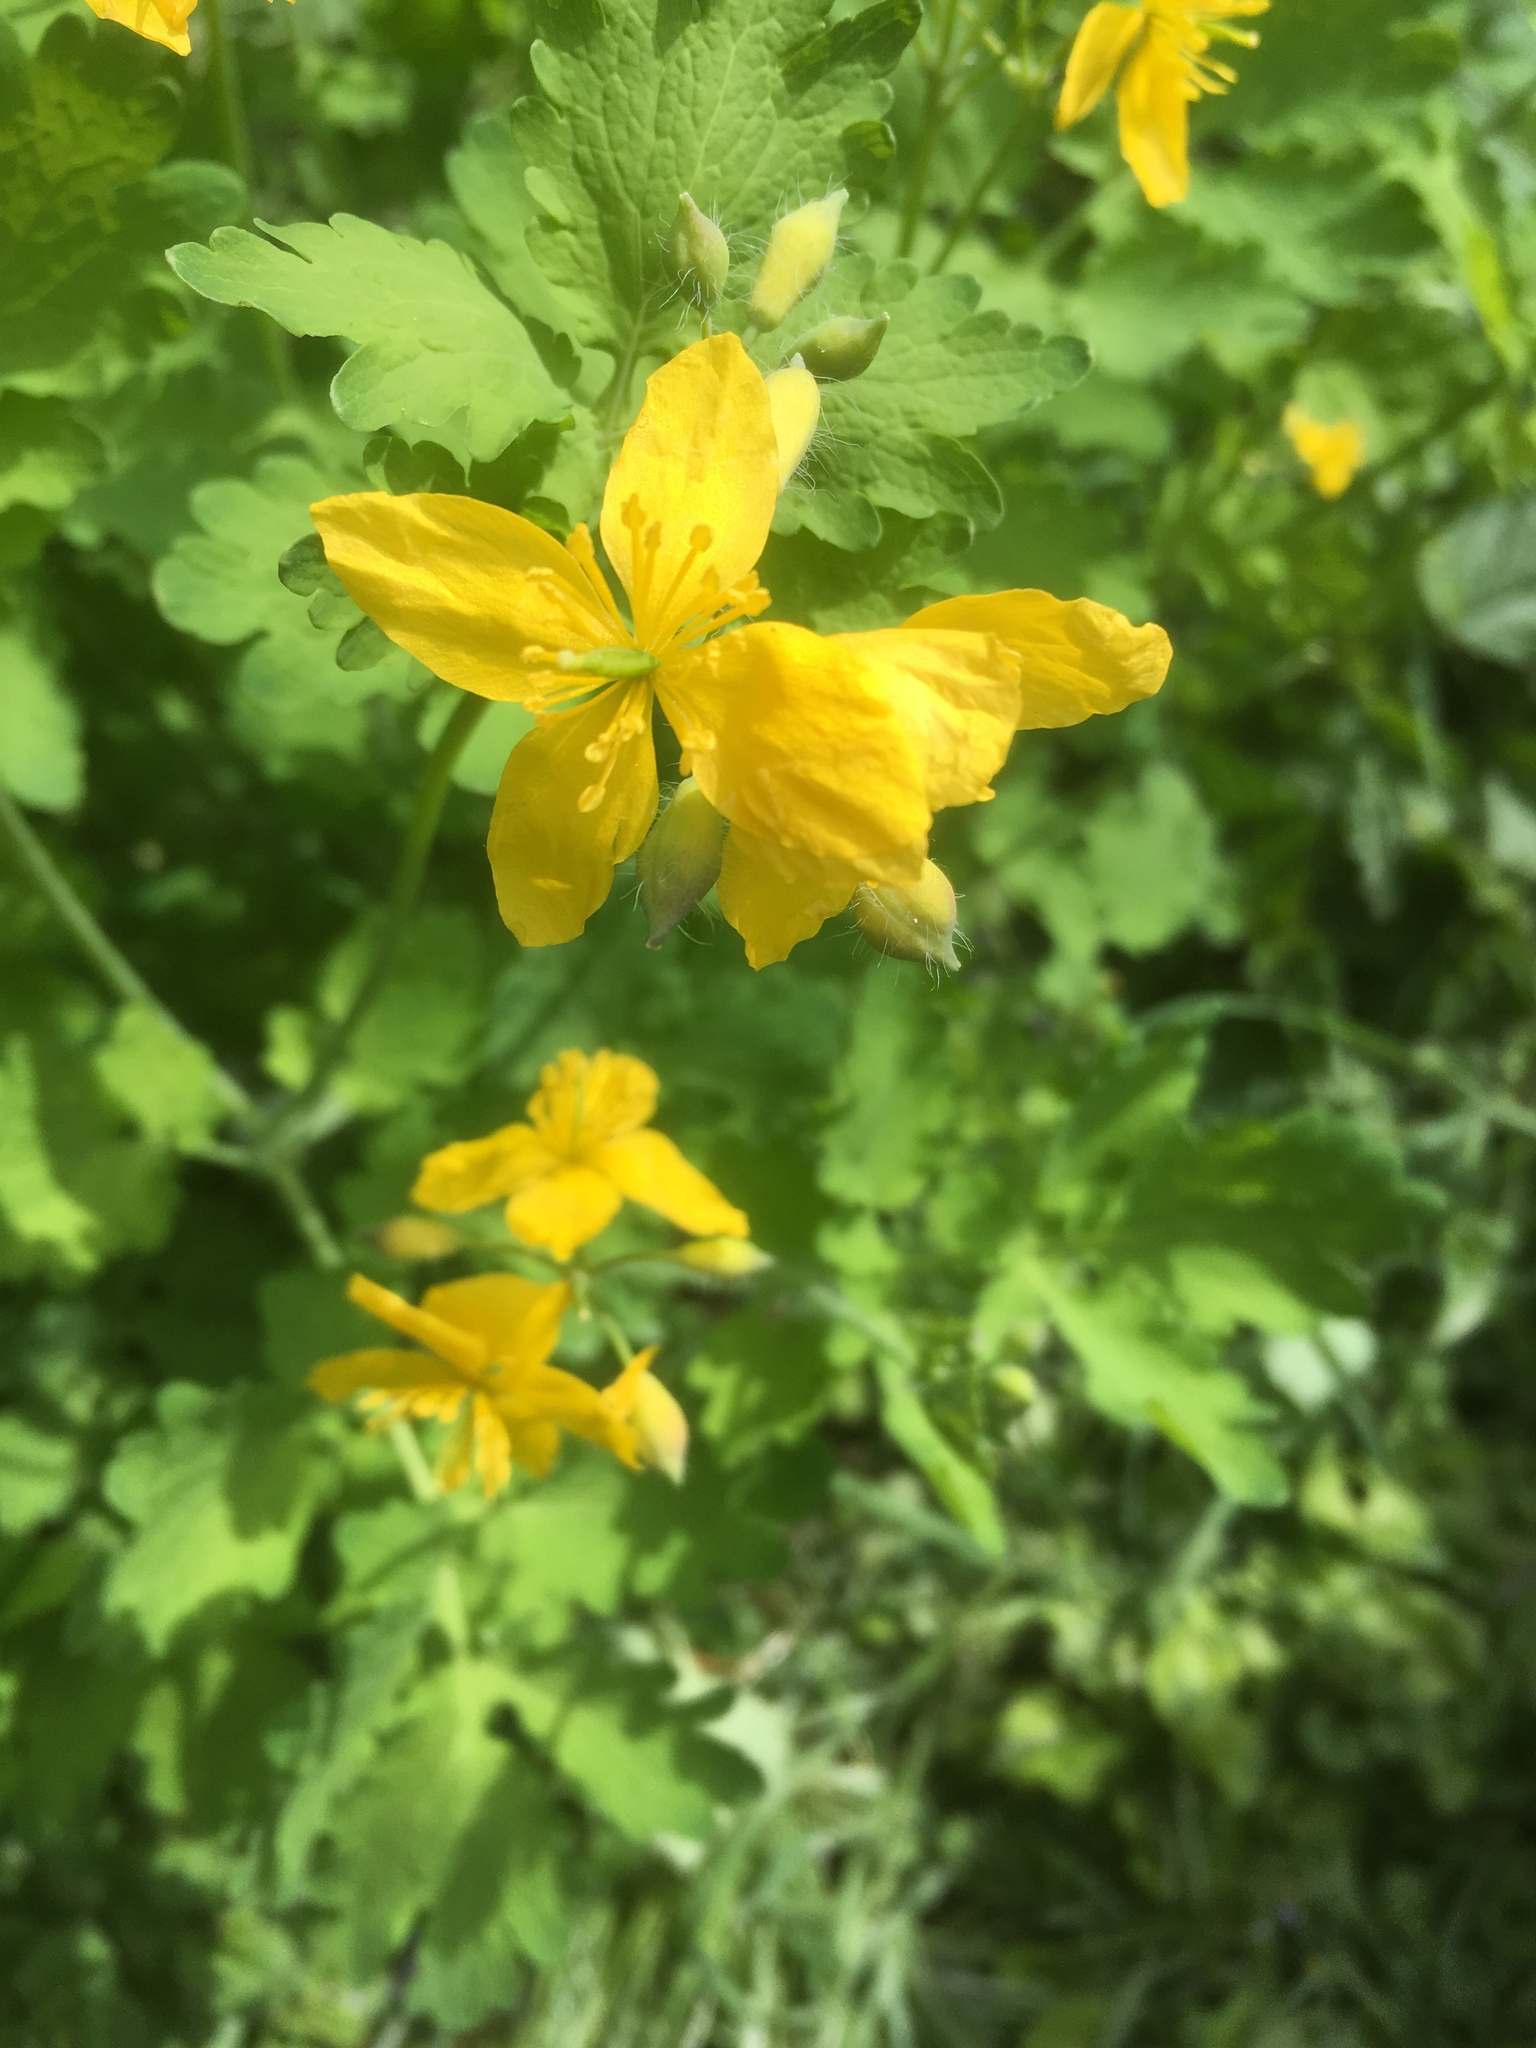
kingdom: Plantae
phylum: Tracheophyta
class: Magnoliopsida
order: Ranunculales
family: Papaveraceae
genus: Chelidonium
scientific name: Chelidonium majus
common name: Greater celandine
